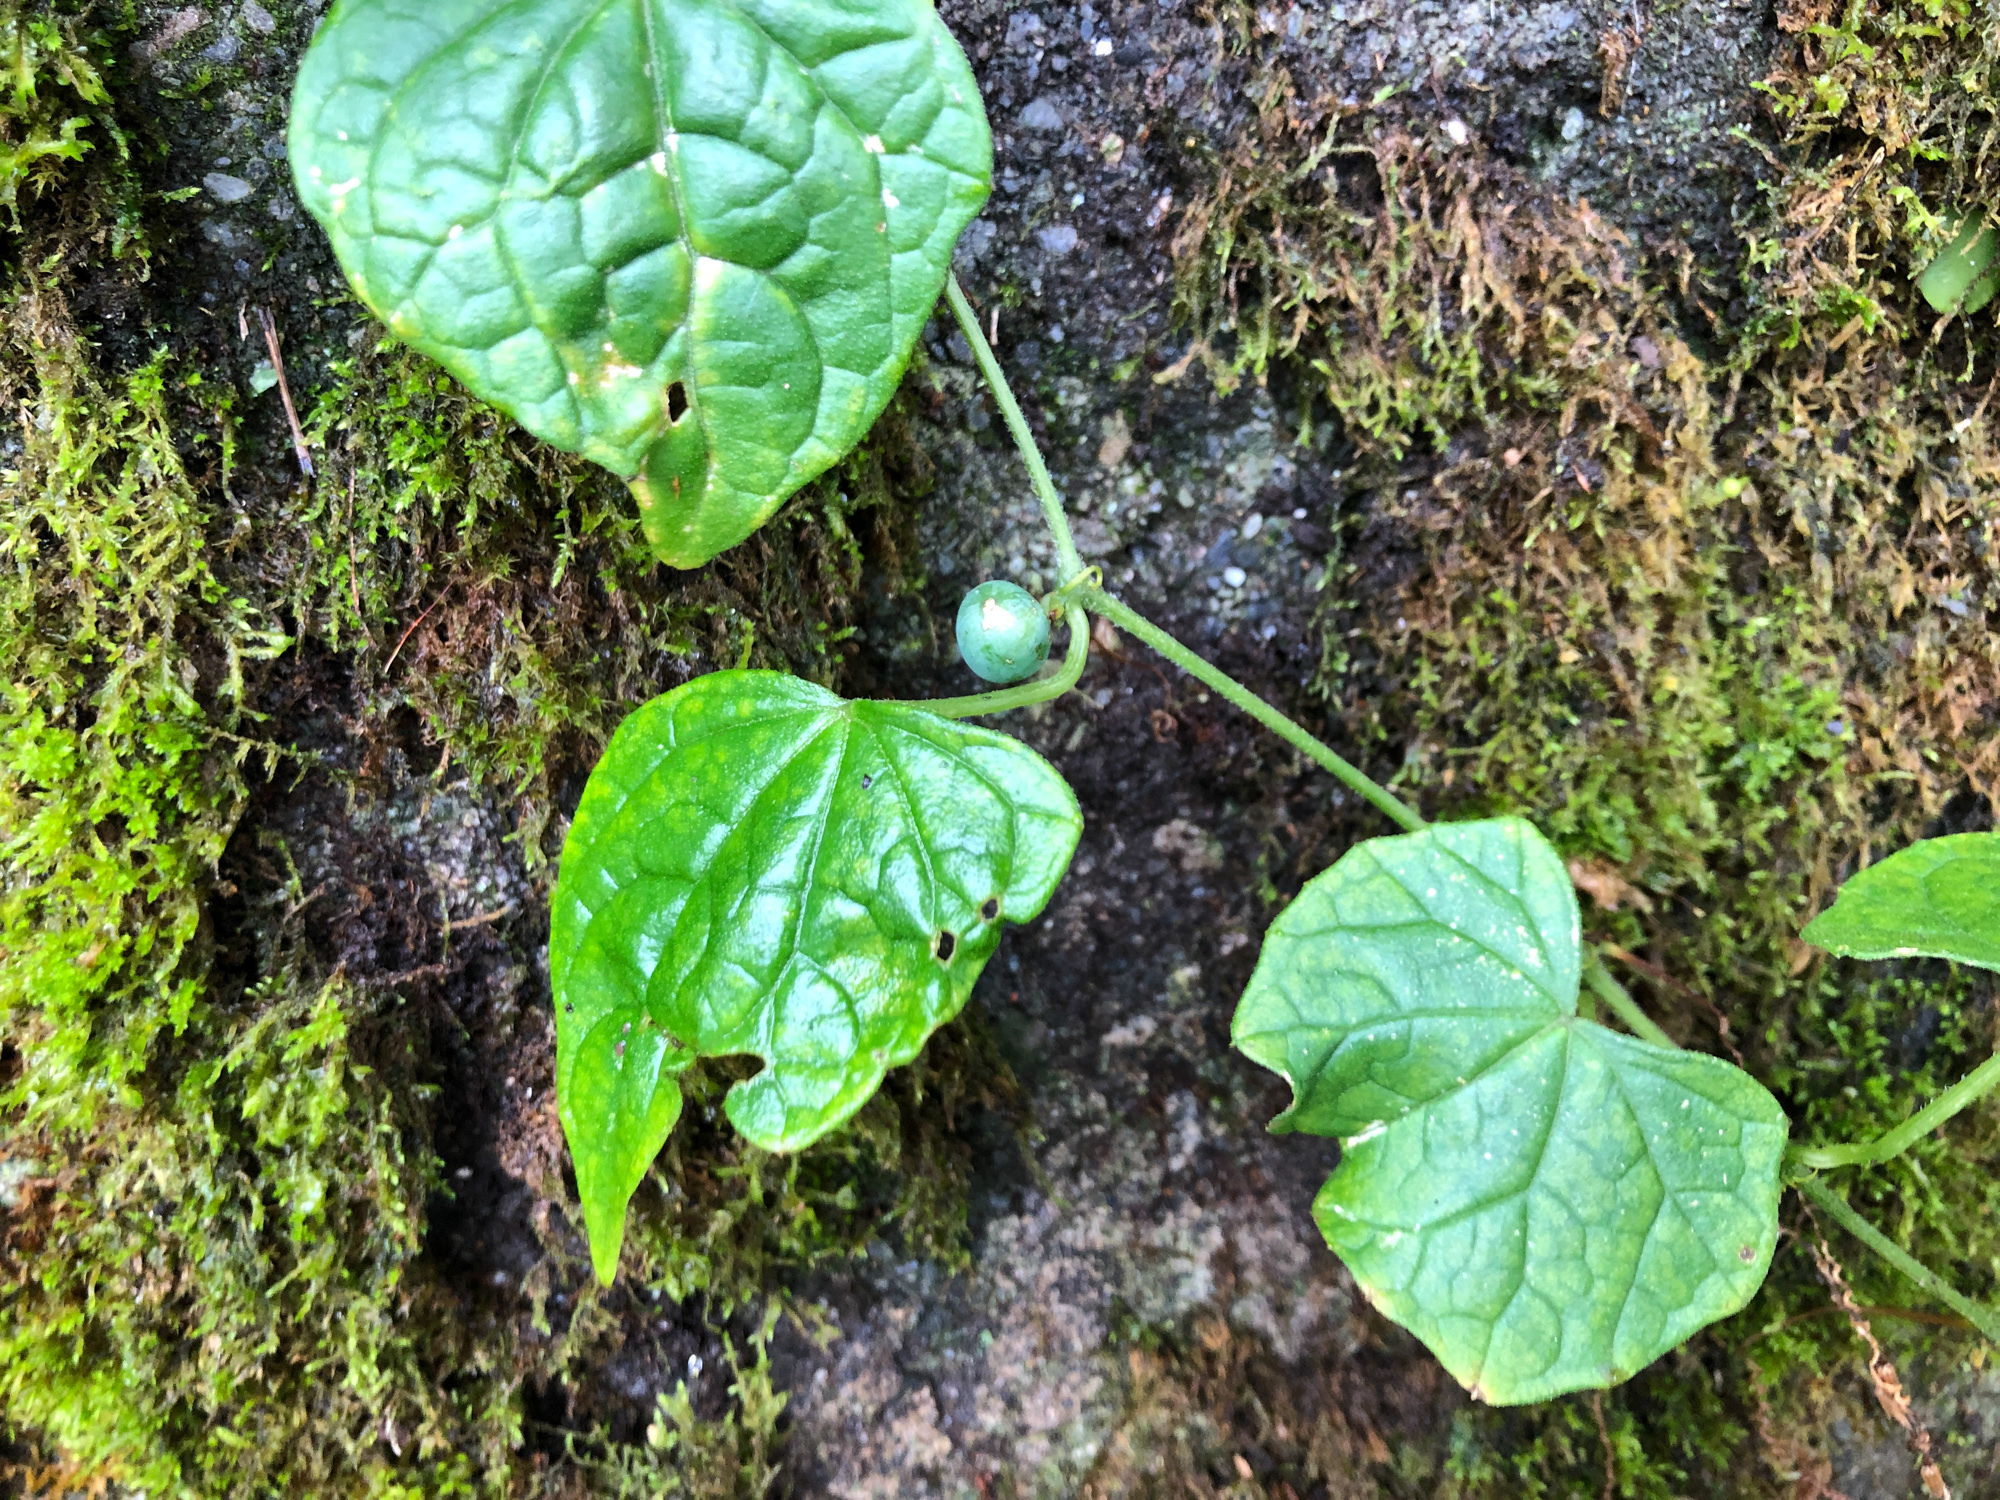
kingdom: Plantae
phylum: Tracheophyta
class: Magnoliopsida
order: Cucurbitales
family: Cucurbitaceae
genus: Zehneria
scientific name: Zehneria guamensis
